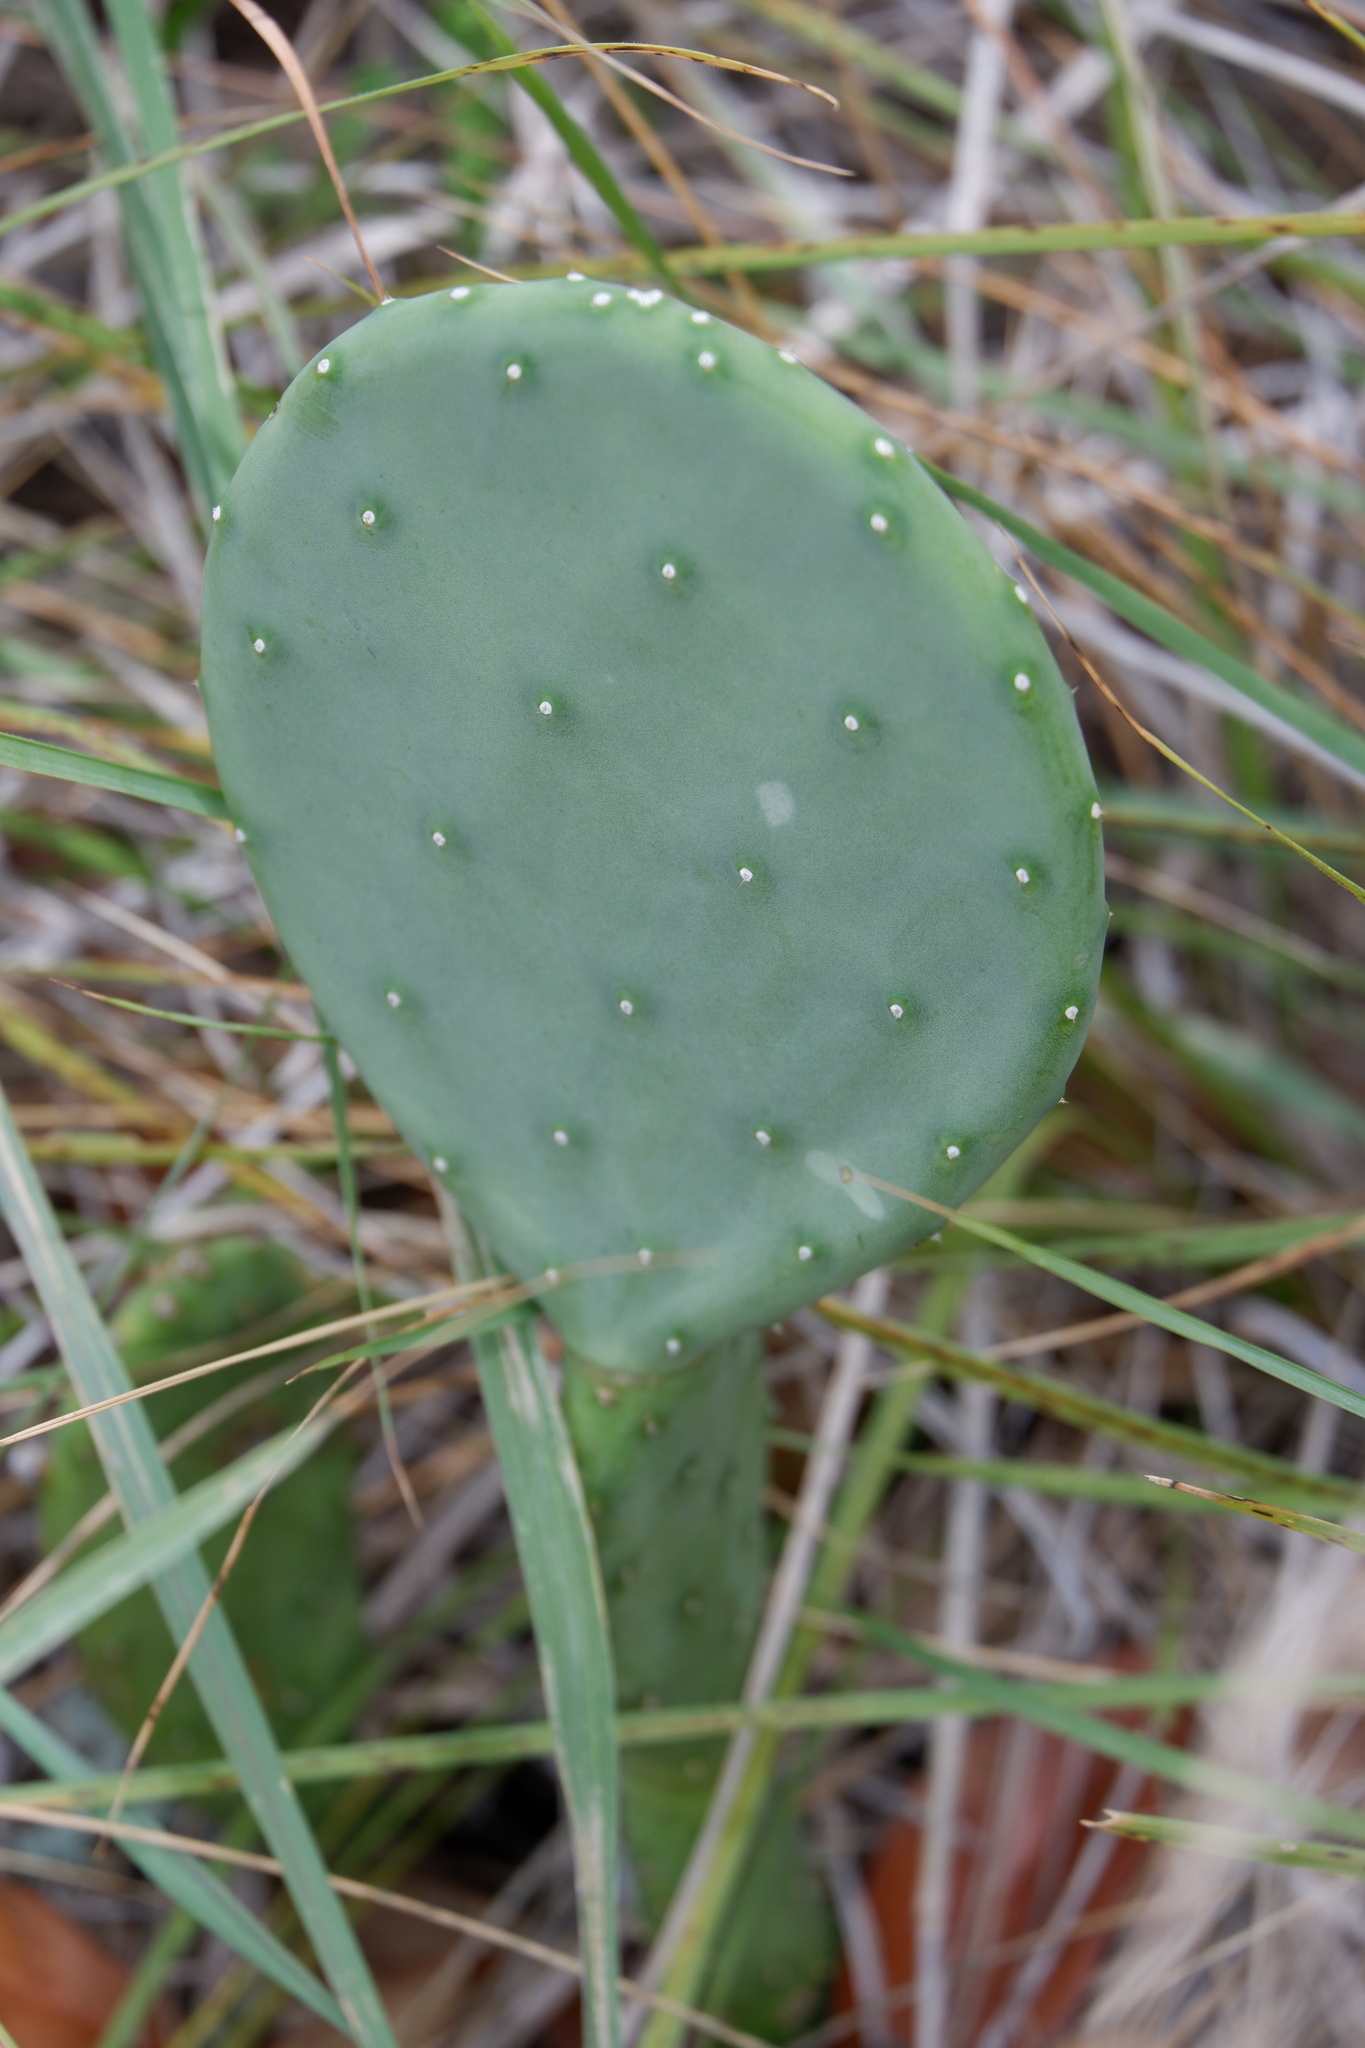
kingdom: Plantae
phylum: Tracheophyta
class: Magnoliopsida
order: Caryophyllales
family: Cactaceae
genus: Opuntia
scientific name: Opuntia engelmannii
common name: Cactus-apple
